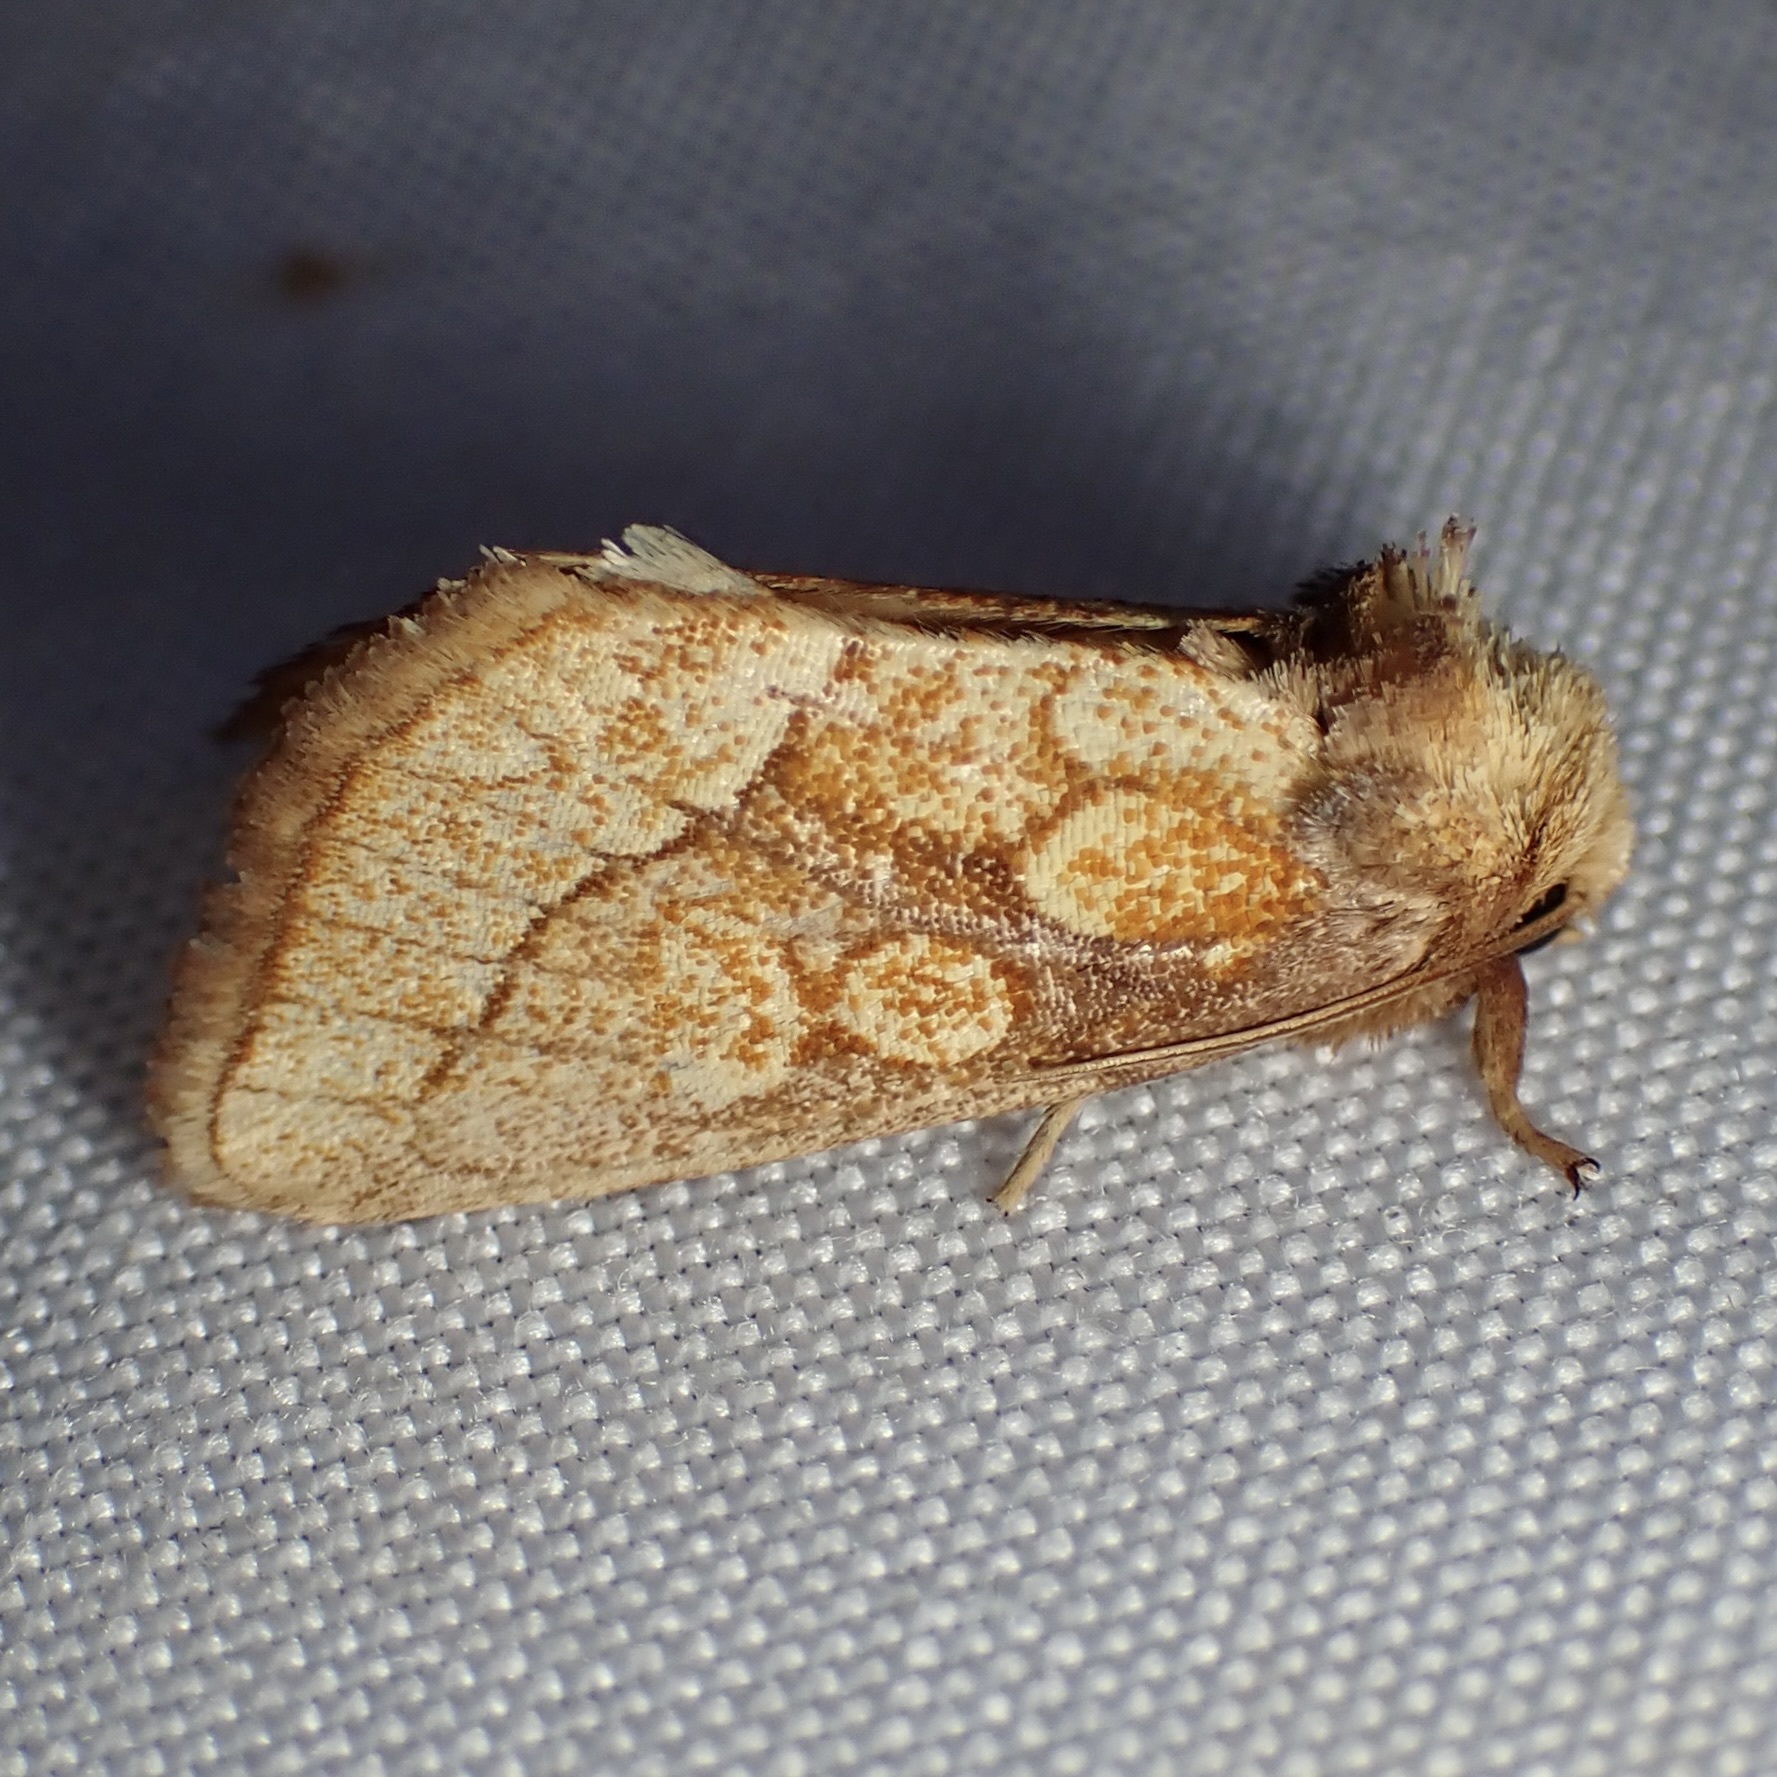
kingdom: Animalia
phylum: Arthropoda
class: Insecta
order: Lepidoptera
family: Noctuidae
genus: Nocloa
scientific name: Nocloa alcandra
